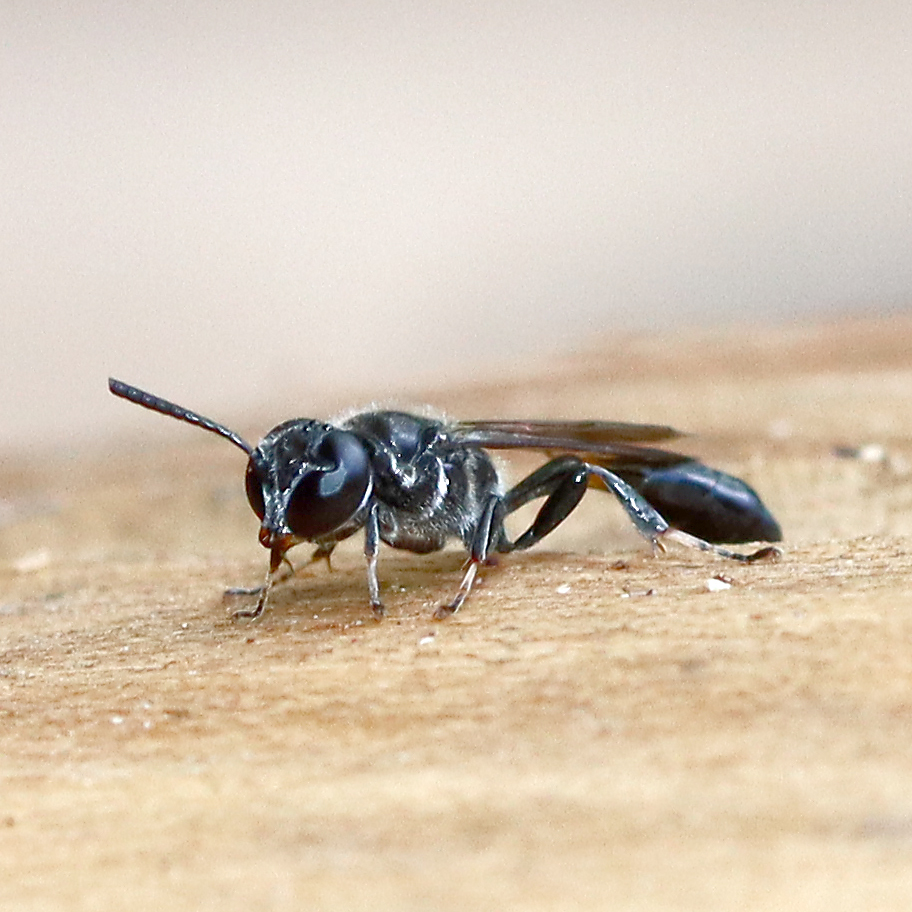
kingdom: Animalia
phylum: Arthropoda
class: Insecta
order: Hymenoptera
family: Crabronidae
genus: Trypoxylon
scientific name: Trypoxylon collinum
